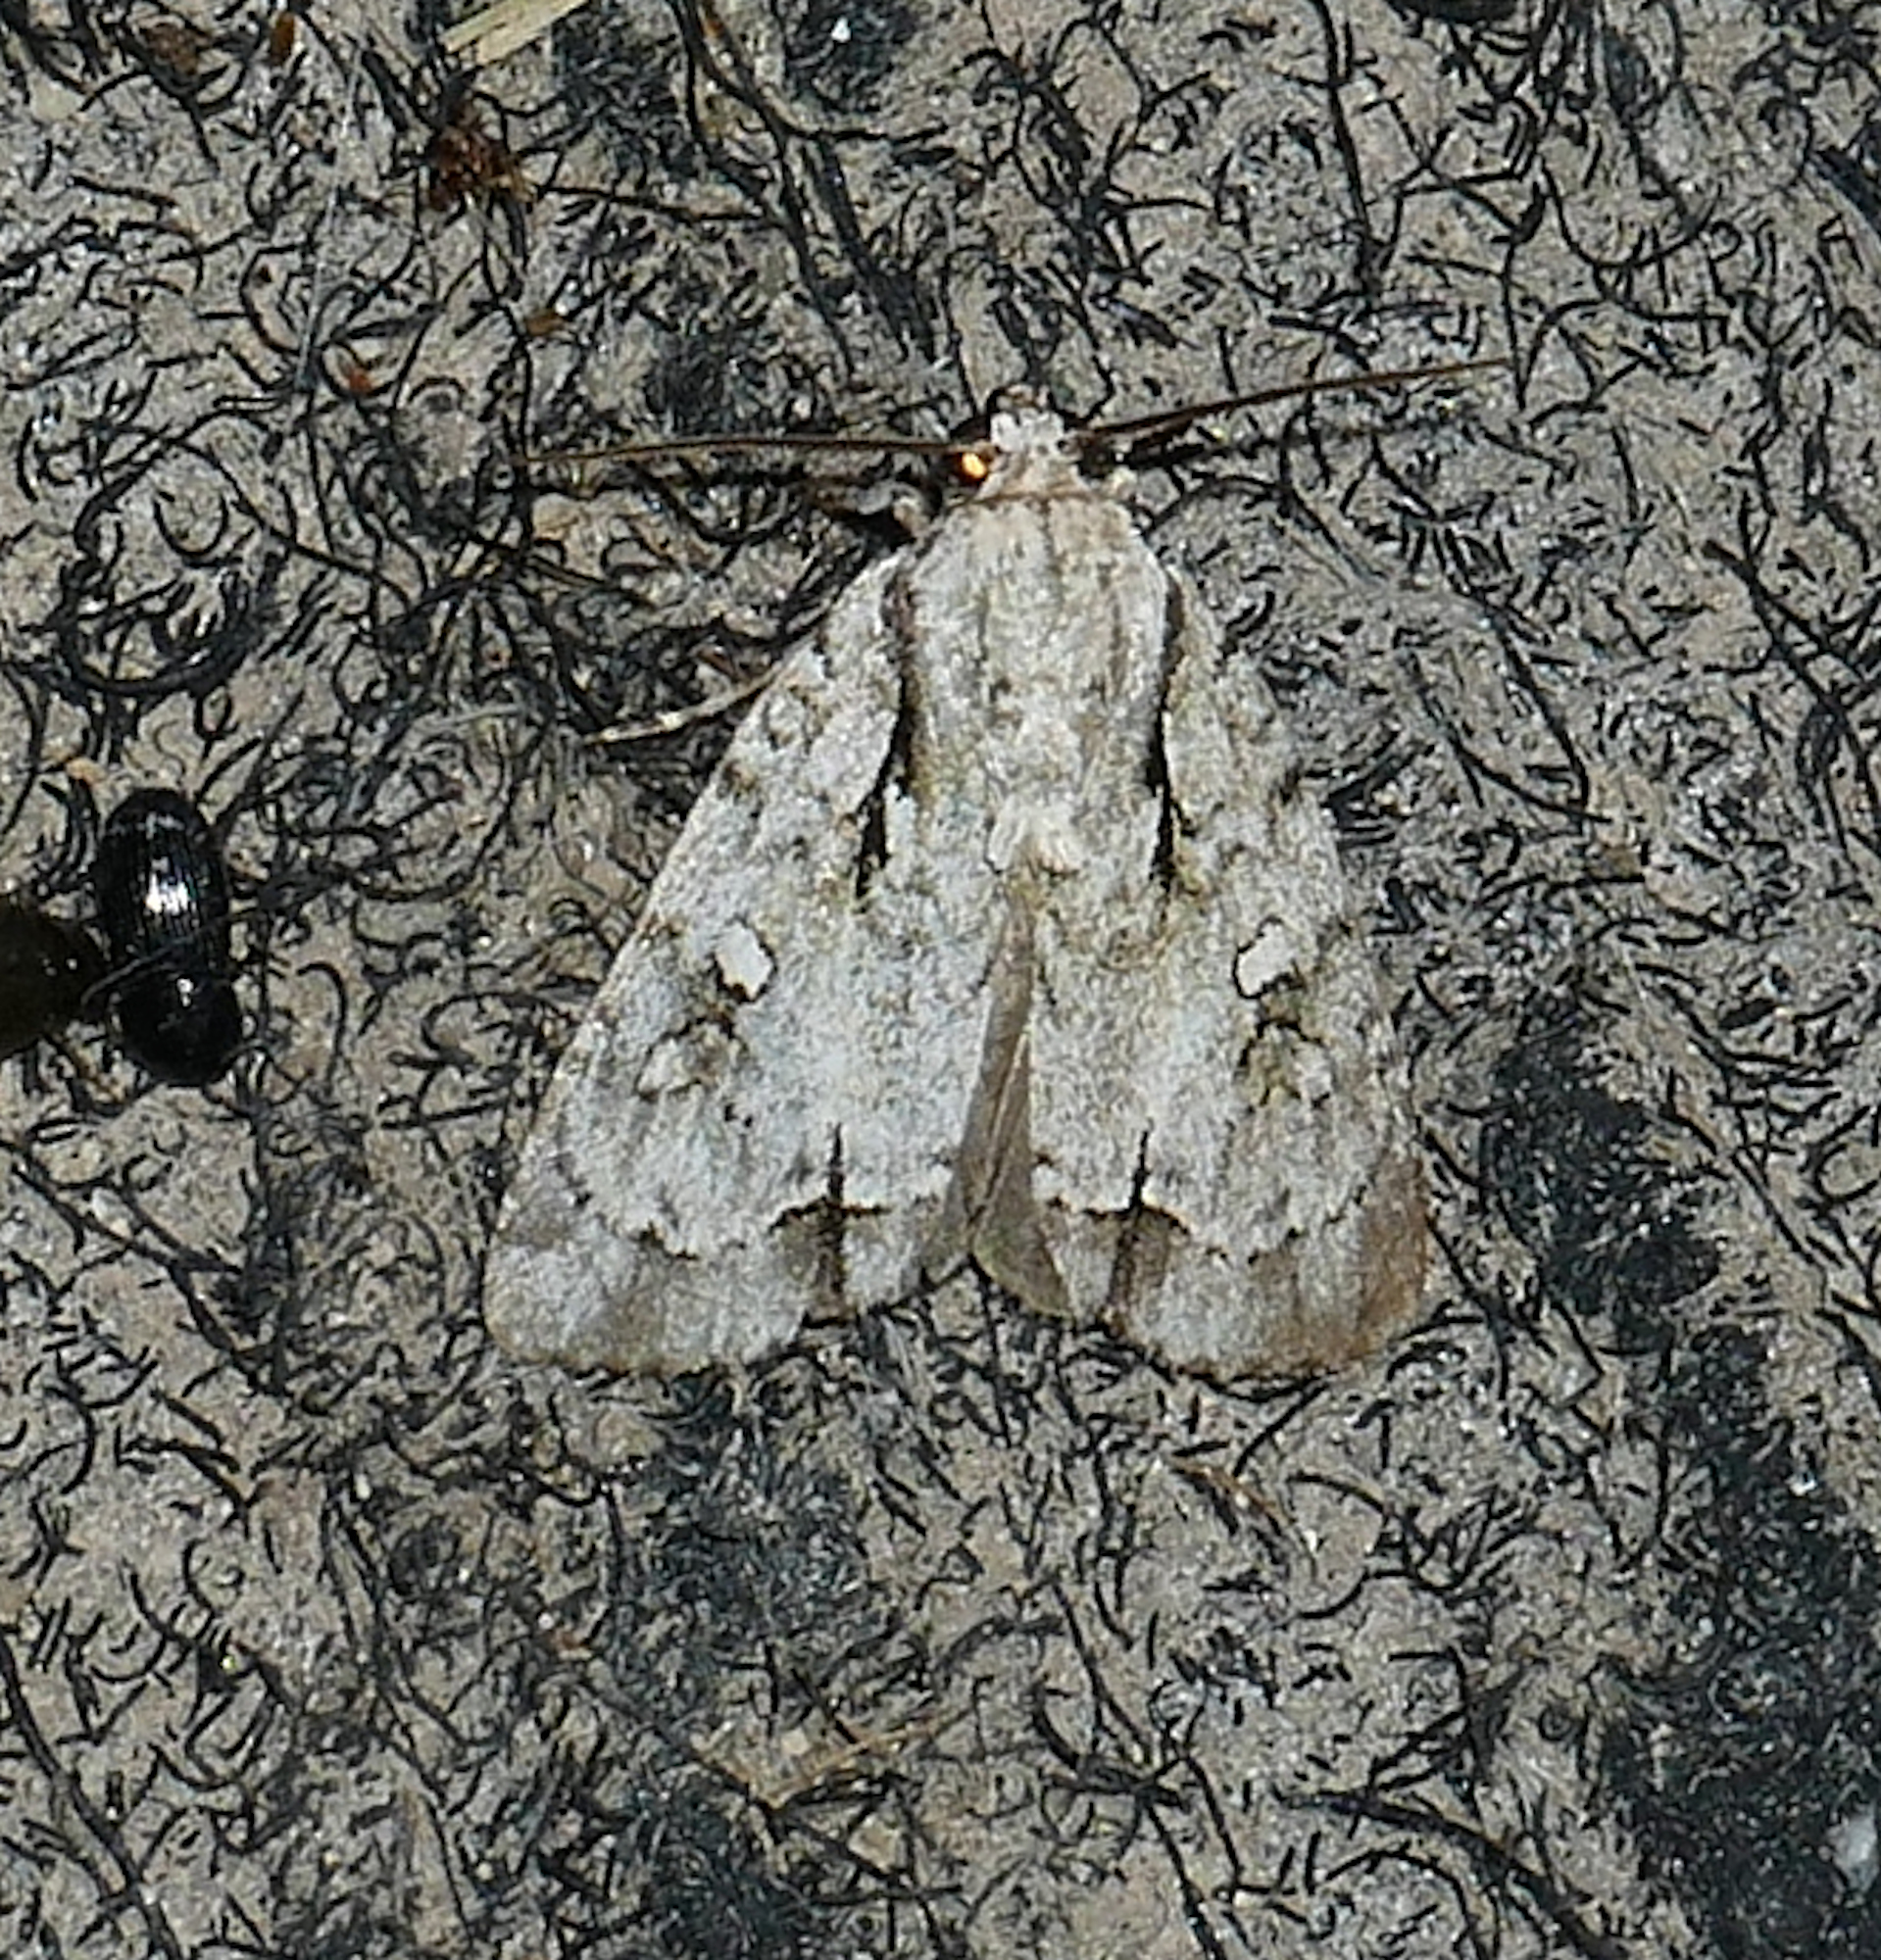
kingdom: Animalia
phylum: Arthropoda
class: Insecta
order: Lepidoptera
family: Noctuidae
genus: Acronicta
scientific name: Acronicta vinnula
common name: Delightful dagger
